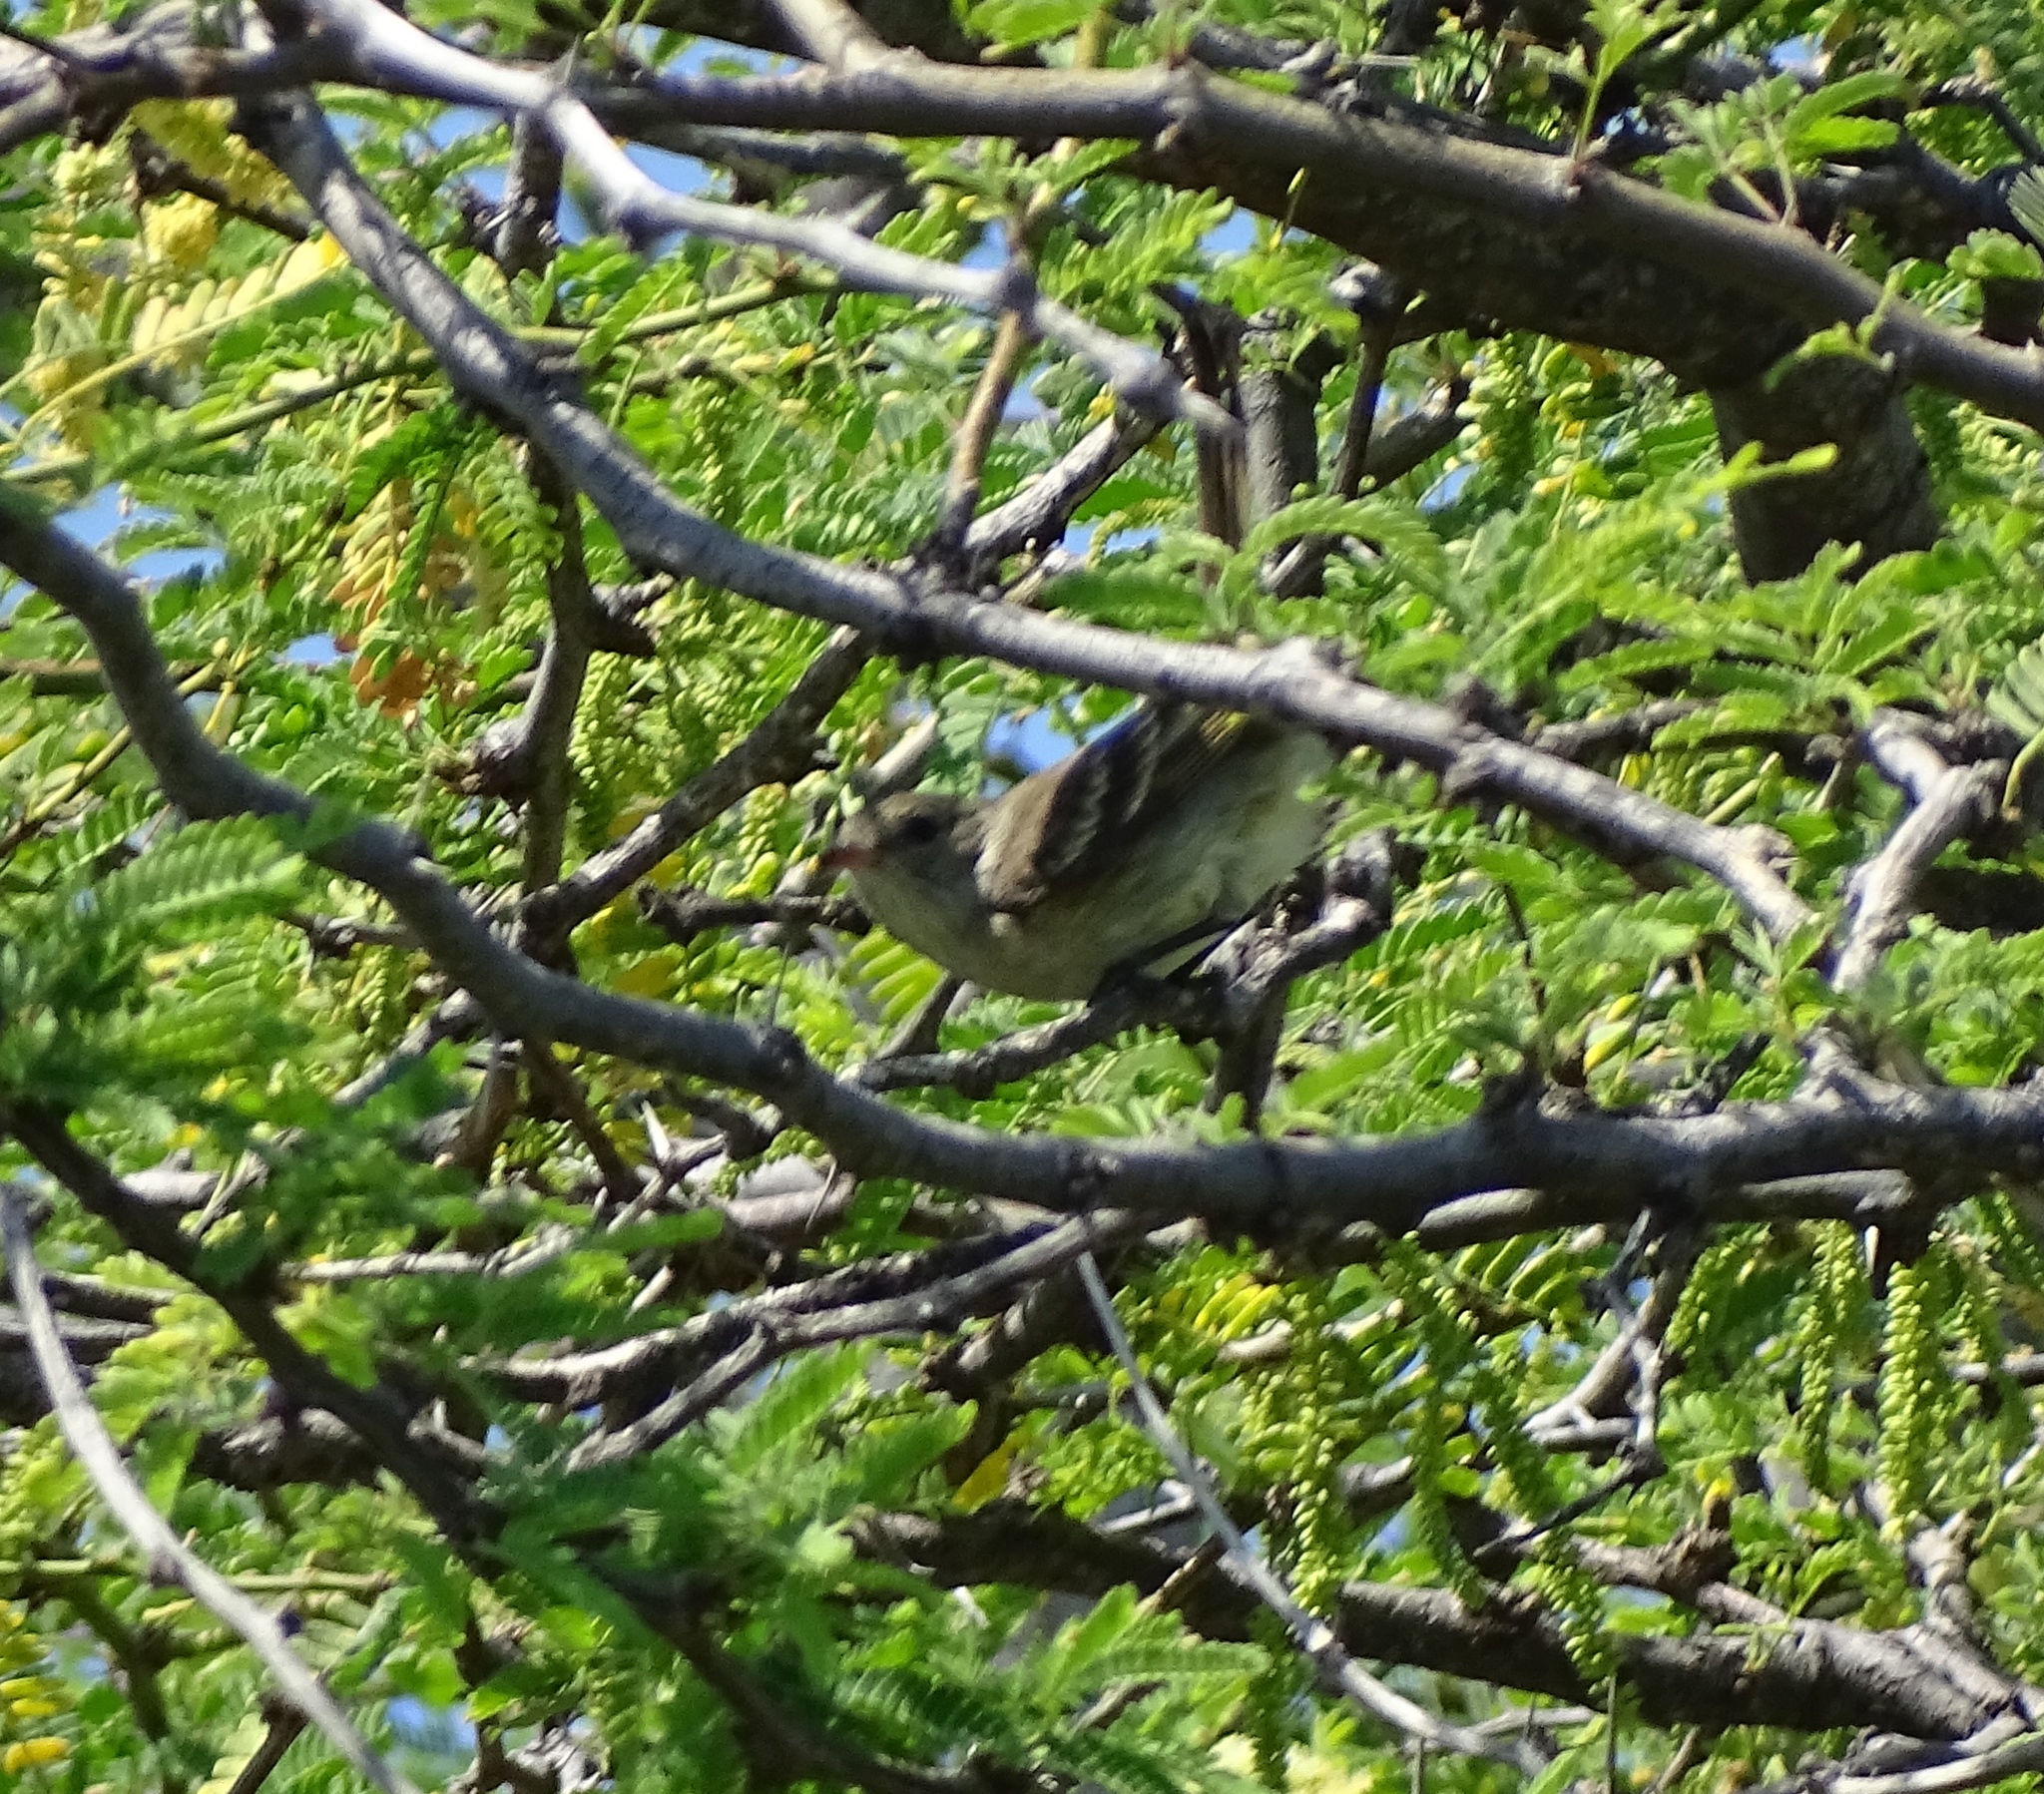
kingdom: Animalia
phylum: Chordata
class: Aves
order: Passeriformes
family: Tyrannidae
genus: Elaenia
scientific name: Elaenia martinica
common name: Caribbean elaenia
